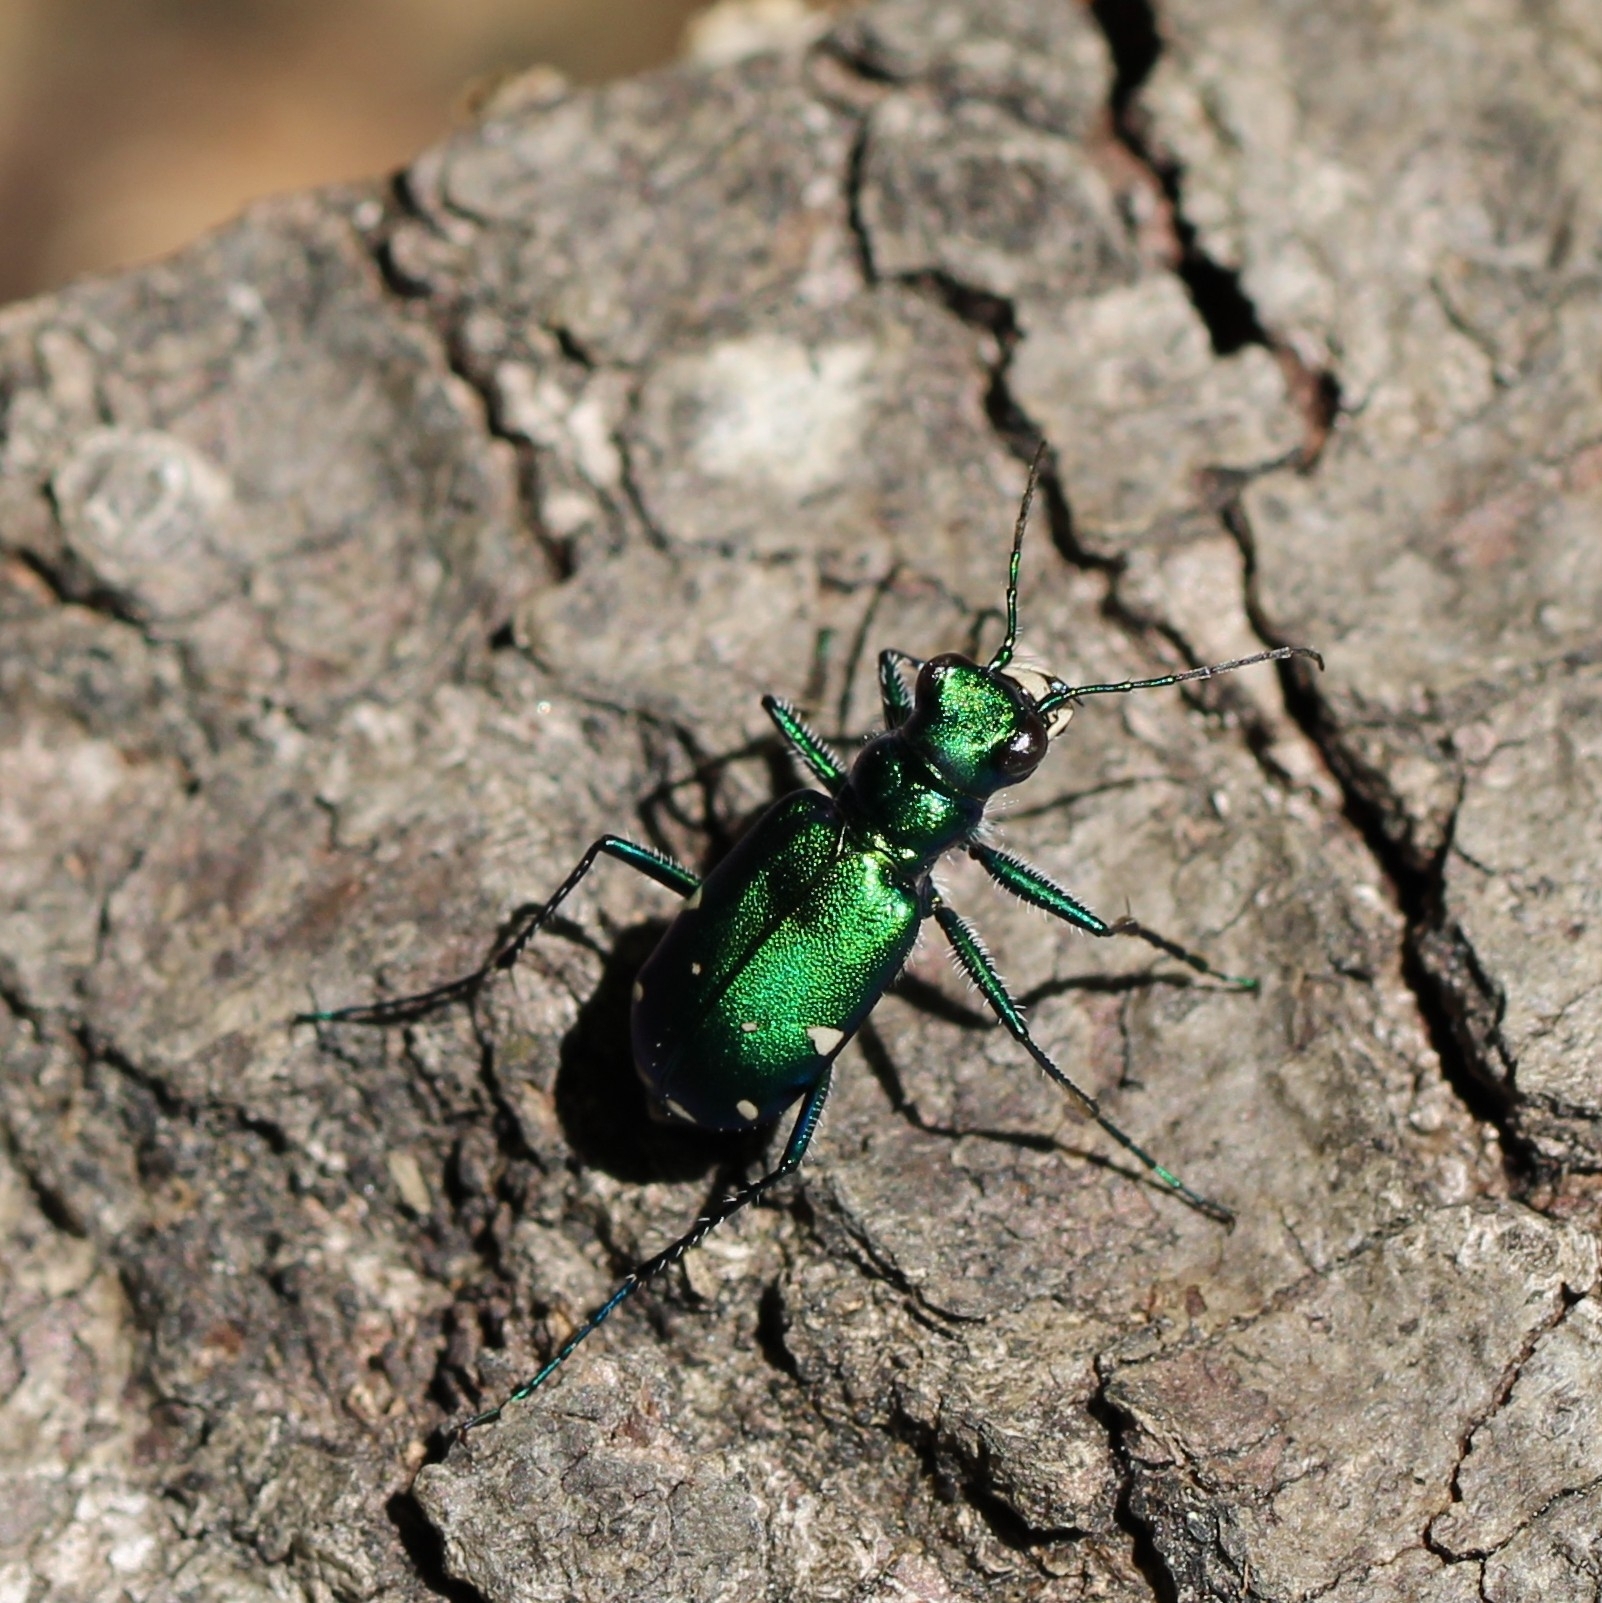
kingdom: Animalia
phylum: Arthropoda
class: Insecta
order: Coleoptera
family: Carabidae
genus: Cicindela
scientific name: Cicindela sexguttata
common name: Six-spotted tiger beetle
